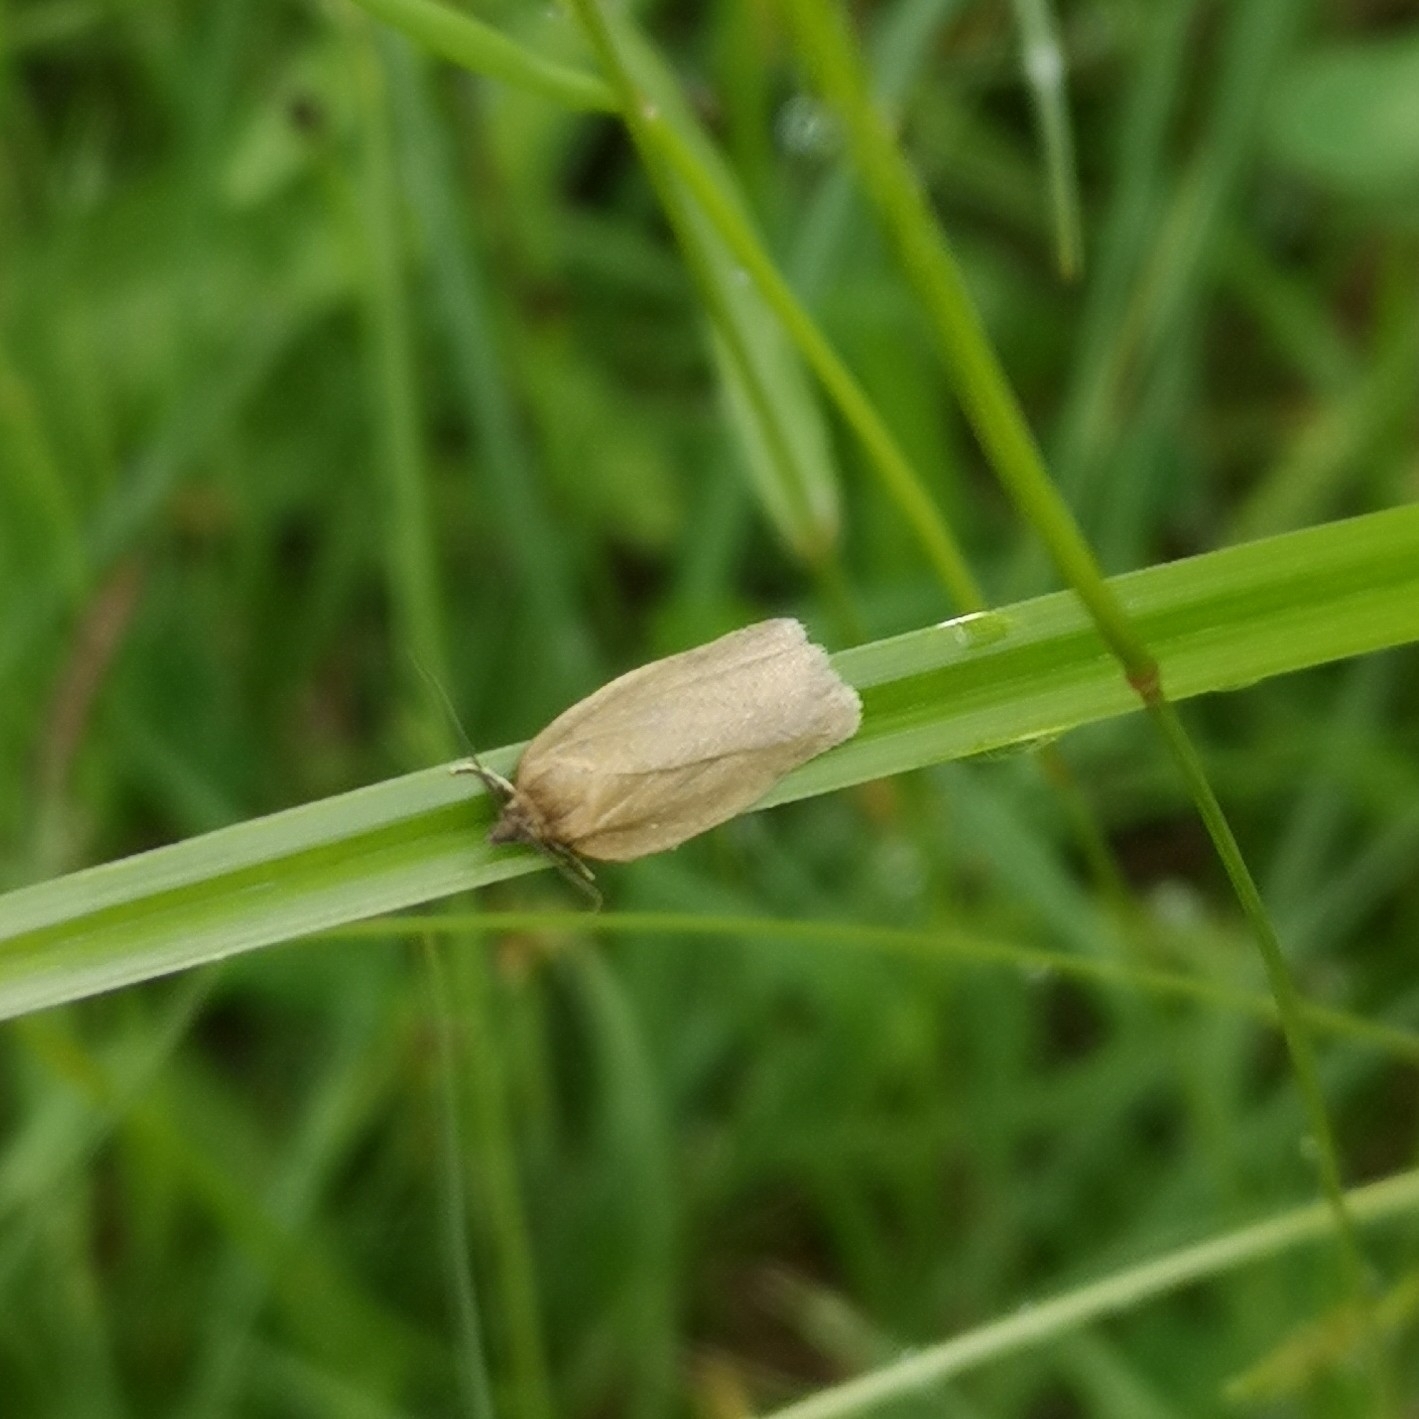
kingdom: Animalia
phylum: Arthropoda
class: Insecta
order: Lepidoptera
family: Tortricidae
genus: Aphelia
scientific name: Aphelia viburnana
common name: Bilberry tortrix
